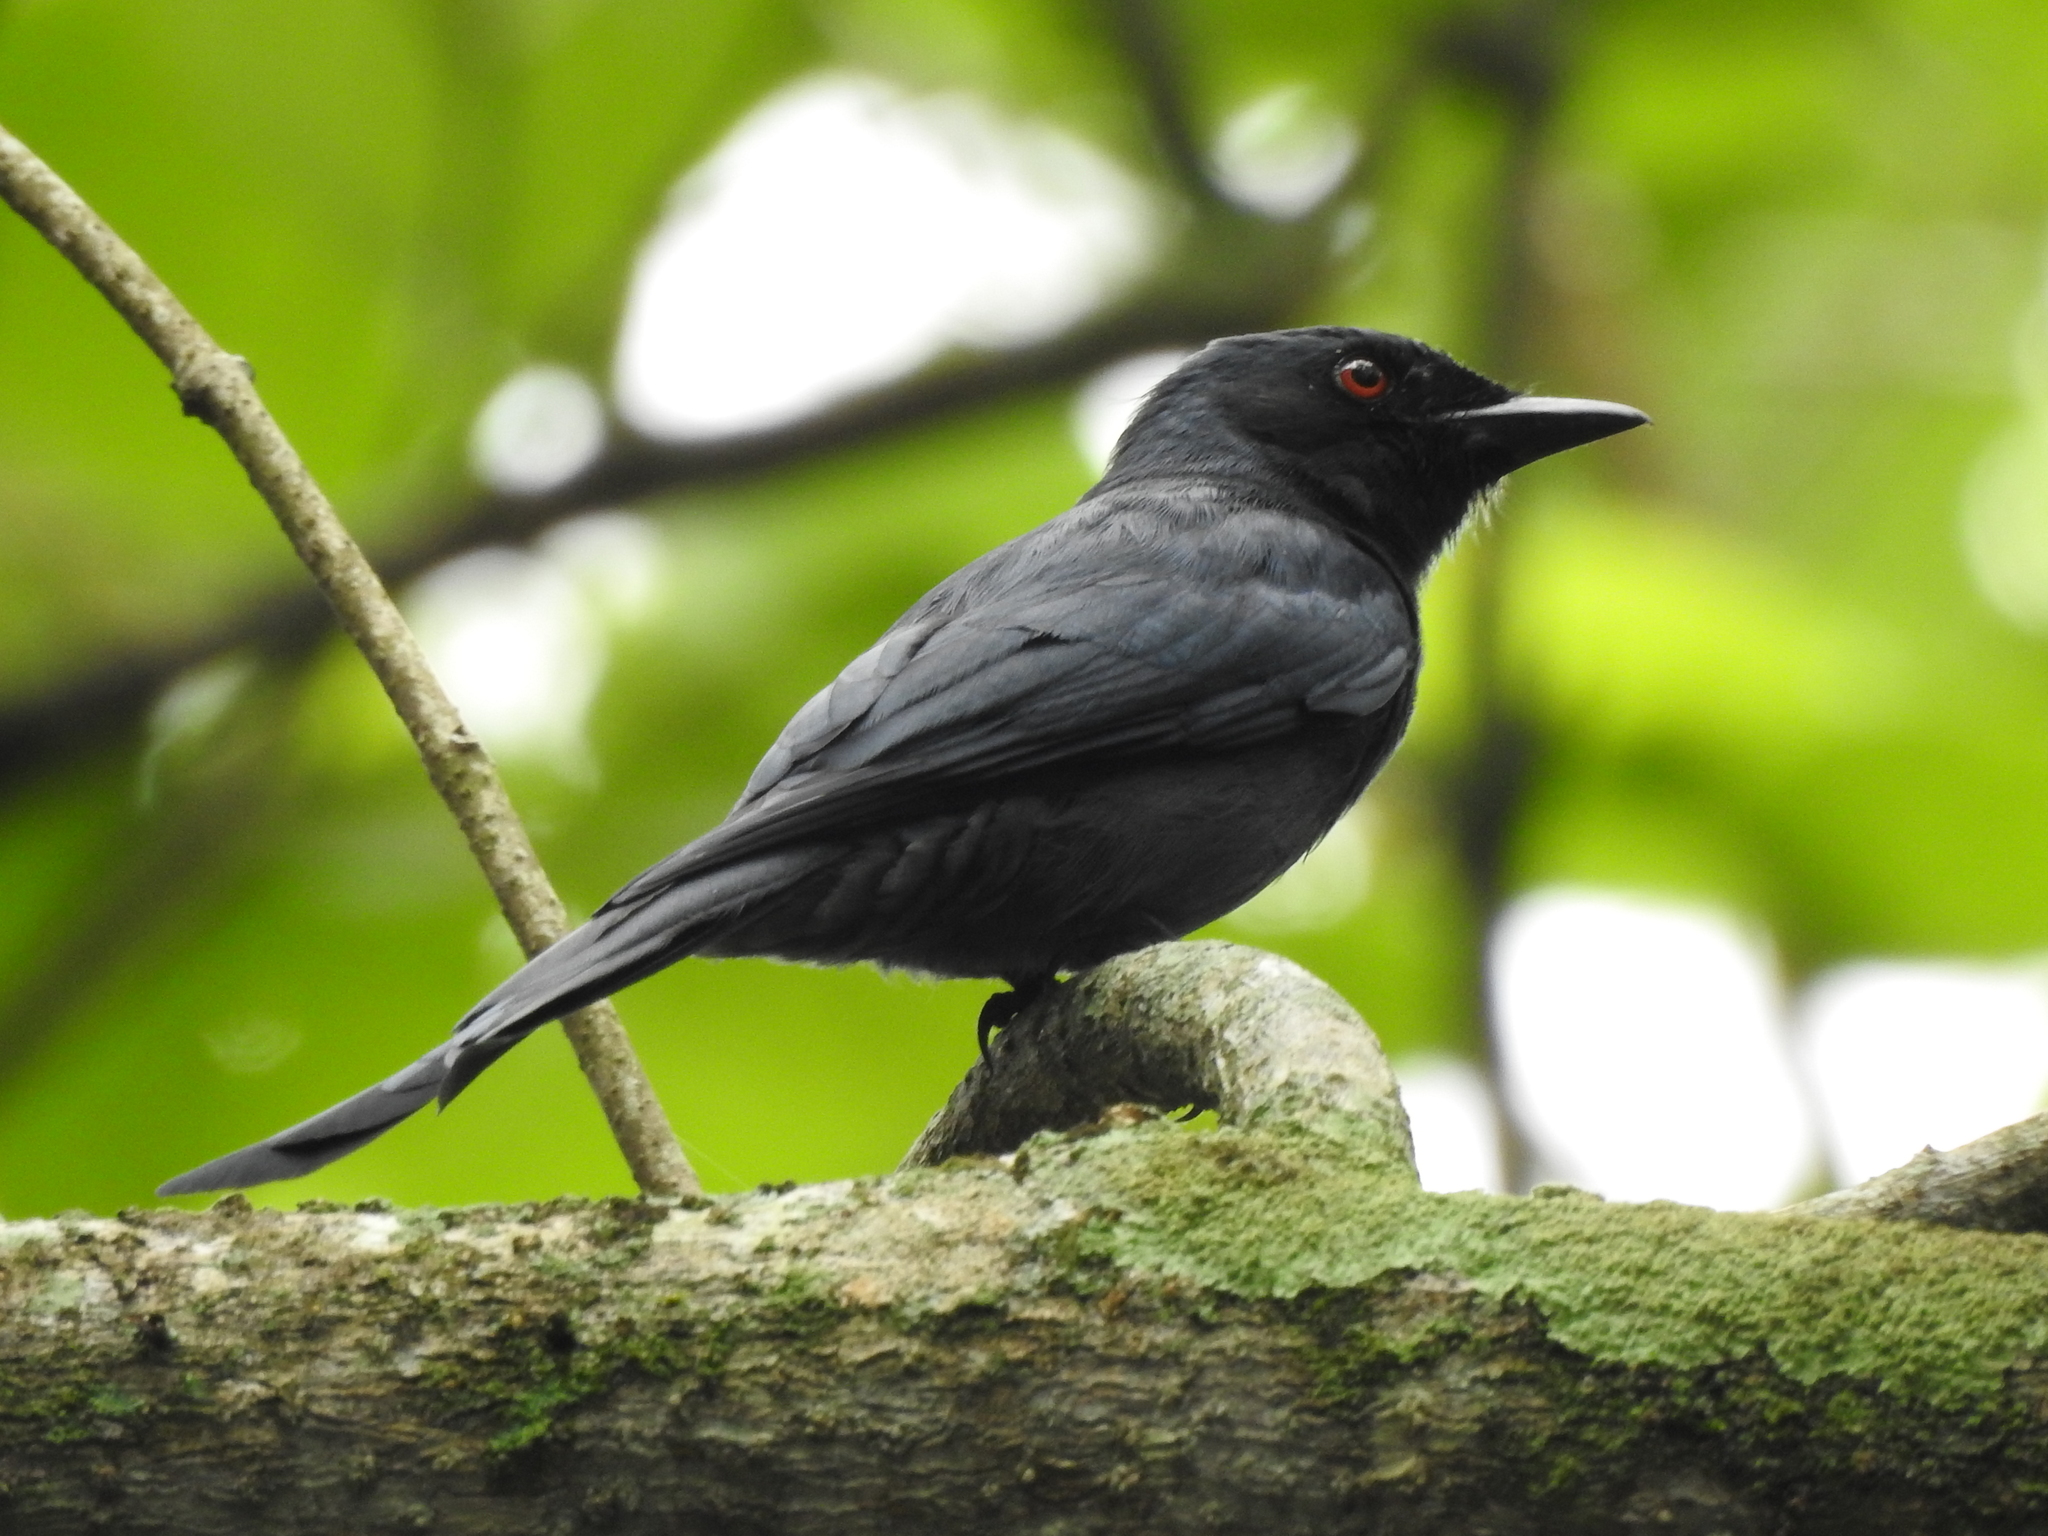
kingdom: Animalia
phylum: Chordata
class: Aves
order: Passeriformes
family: Dicruridae
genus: Dicrurus
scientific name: Dicrurus leucophaeus
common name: Ashy drongo
